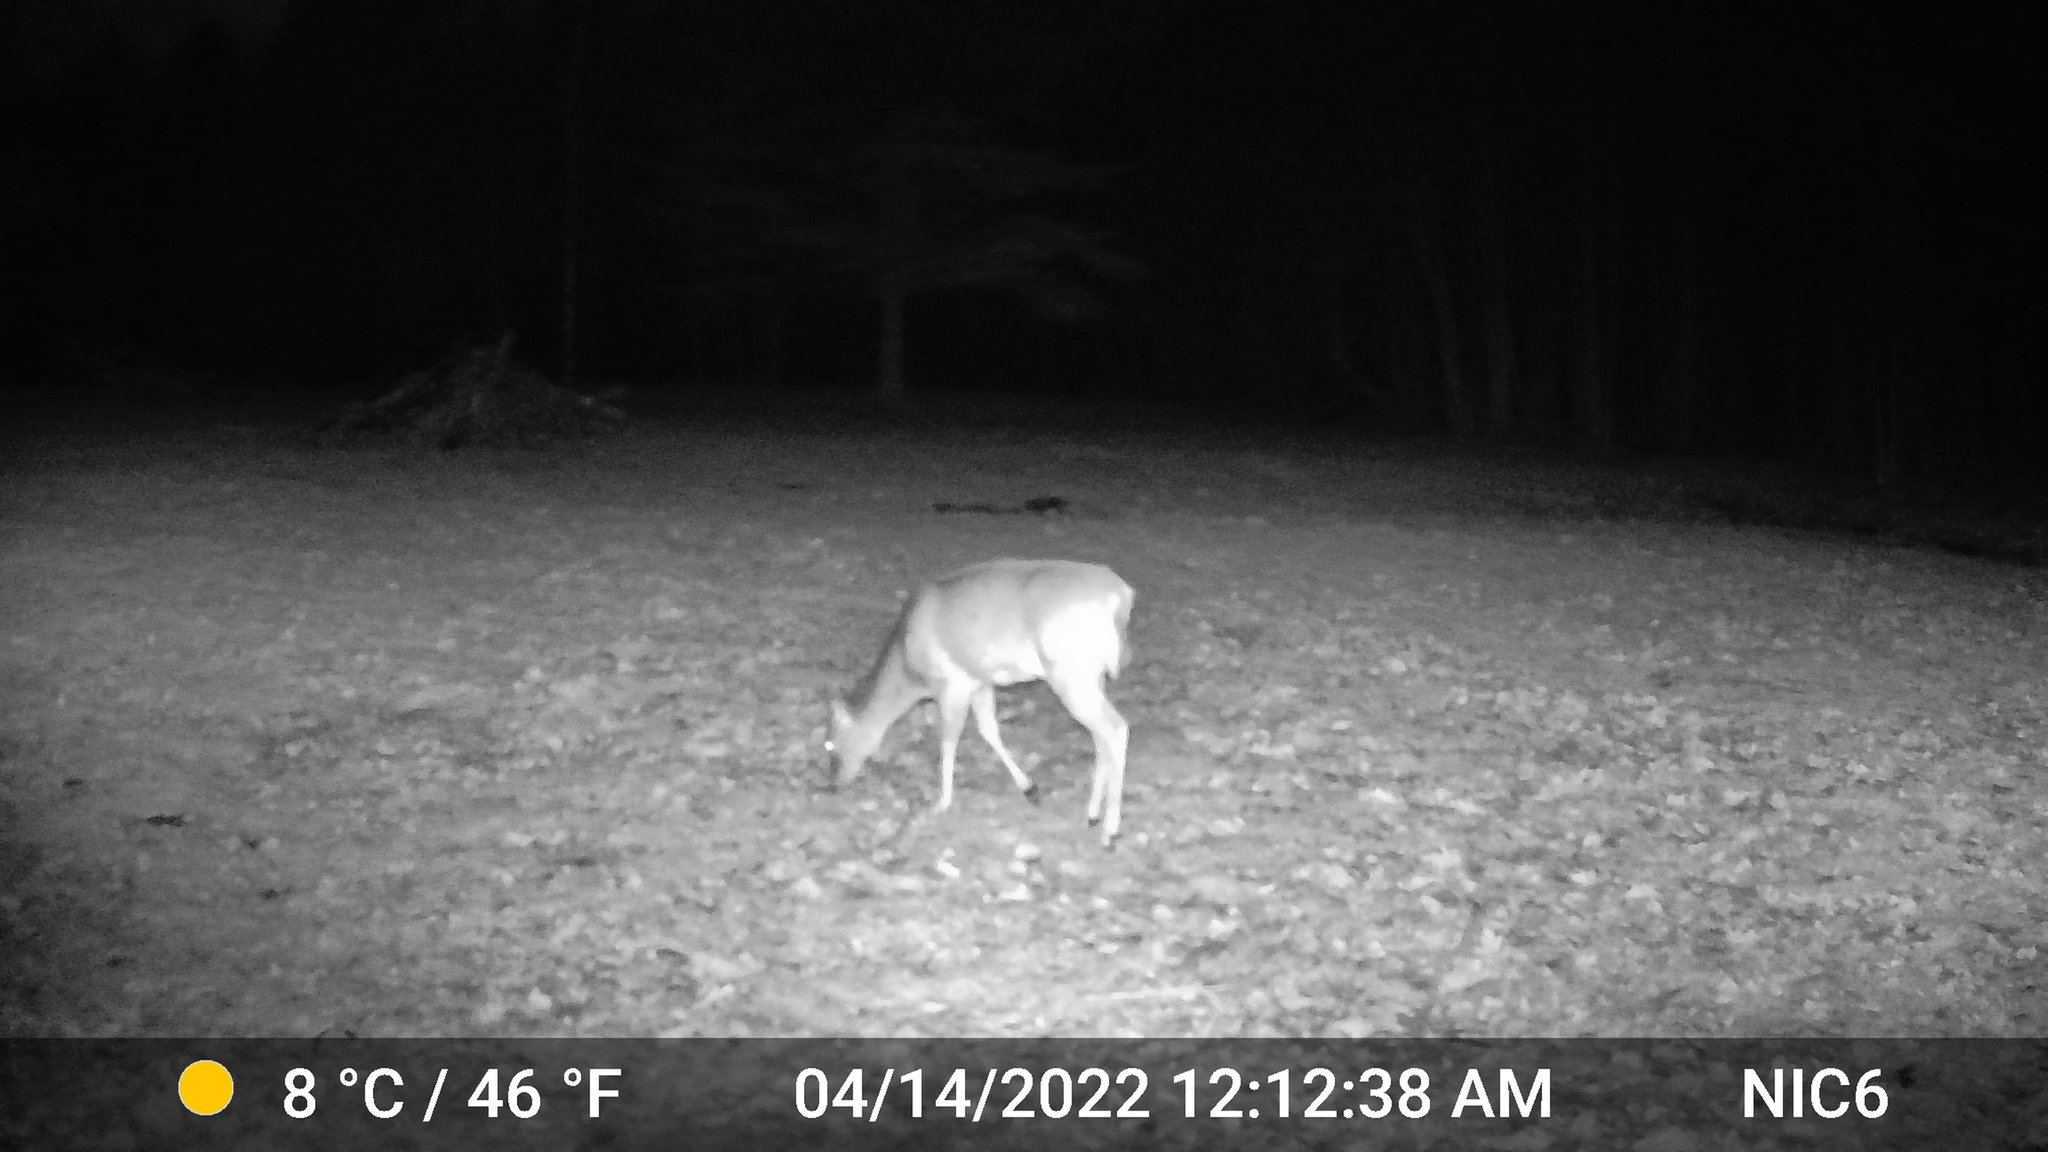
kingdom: Animalia
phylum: Chordata
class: Mammalia
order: Artiodactyla
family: Cervidae
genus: Odocoileus
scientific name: Odocoileus virginianus
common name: White-tailed deer
